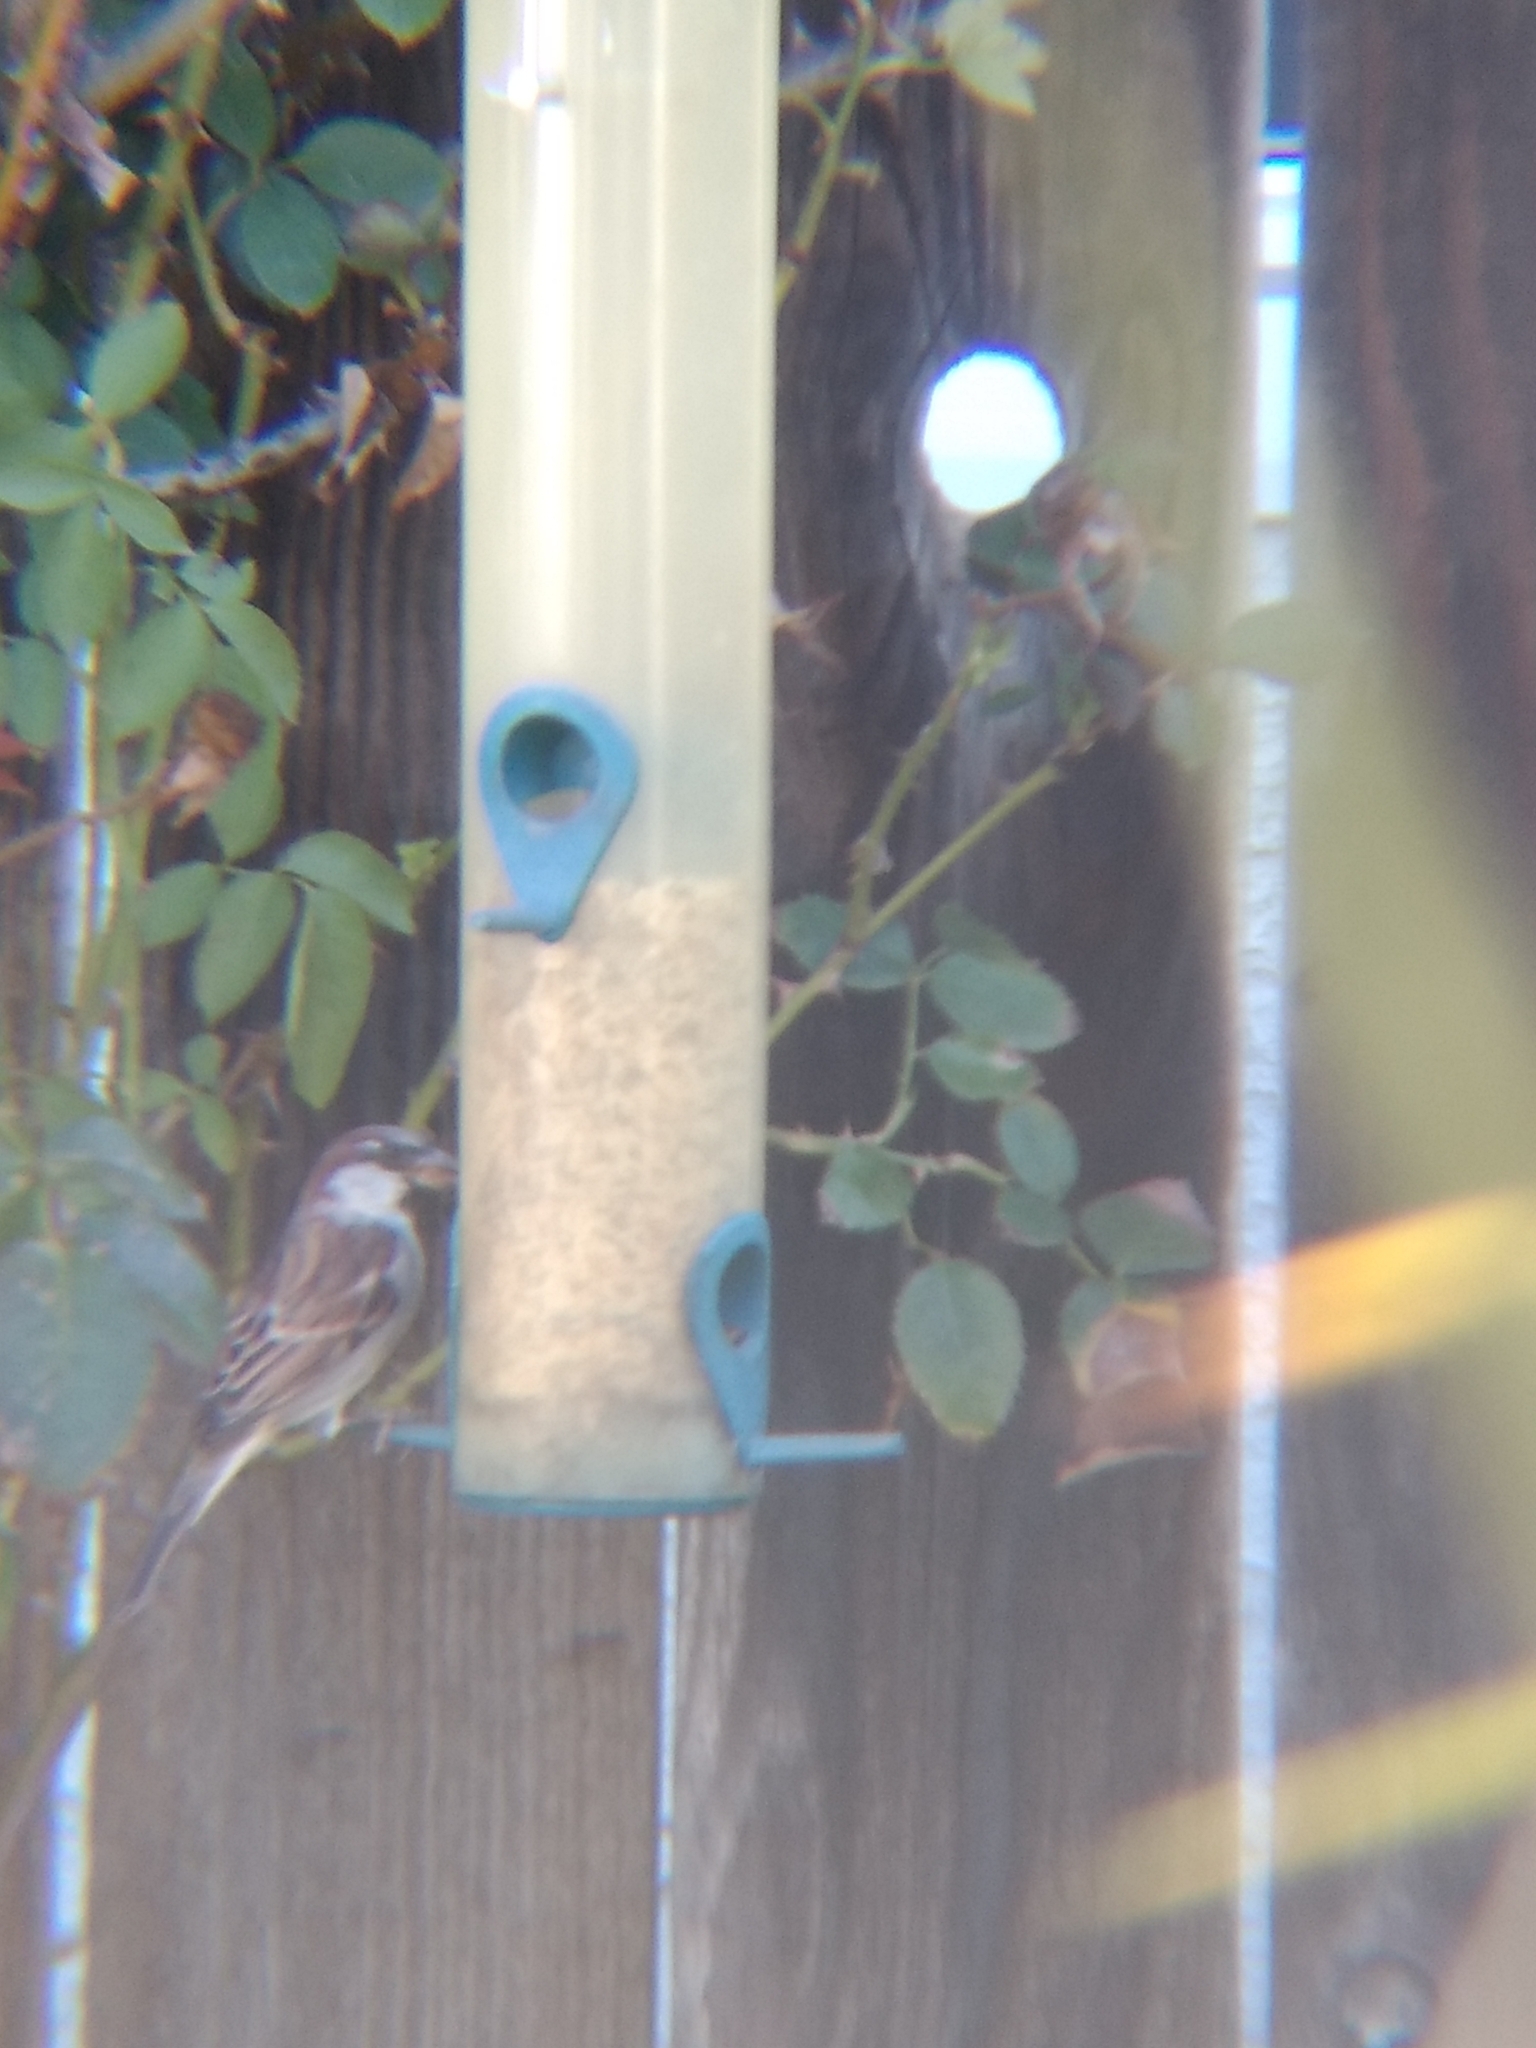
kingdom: Animalia
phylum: Chordata
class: Aves
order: Passeriformes
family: Passeridae
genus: Passer
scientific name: Passer domesticus
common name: House sparrow
